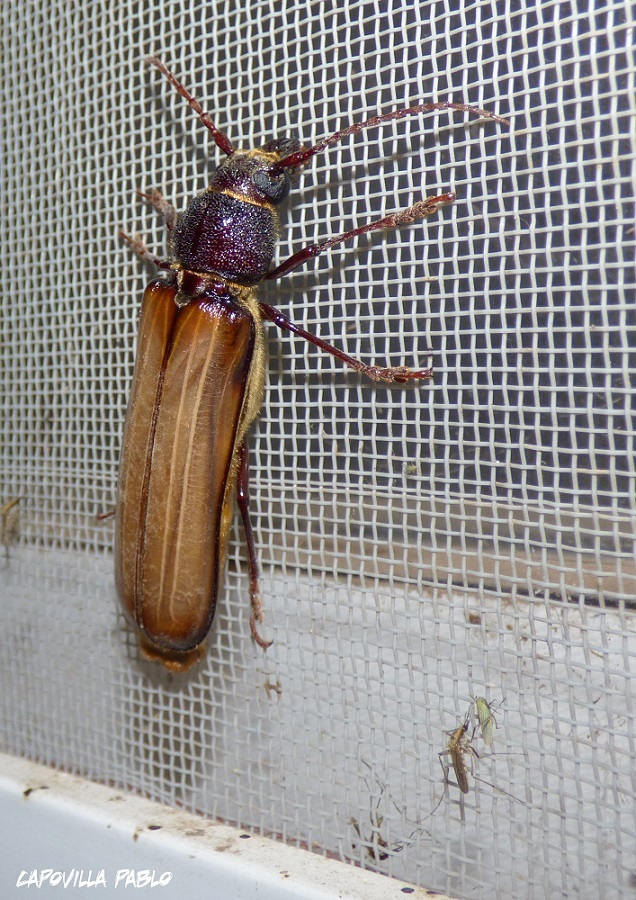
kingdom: Animalia
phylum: Arthropoda
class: Insecta
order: Coleoptera
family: Cerambycidae
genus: Torneutes
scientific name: Torneutes pallidipennis
